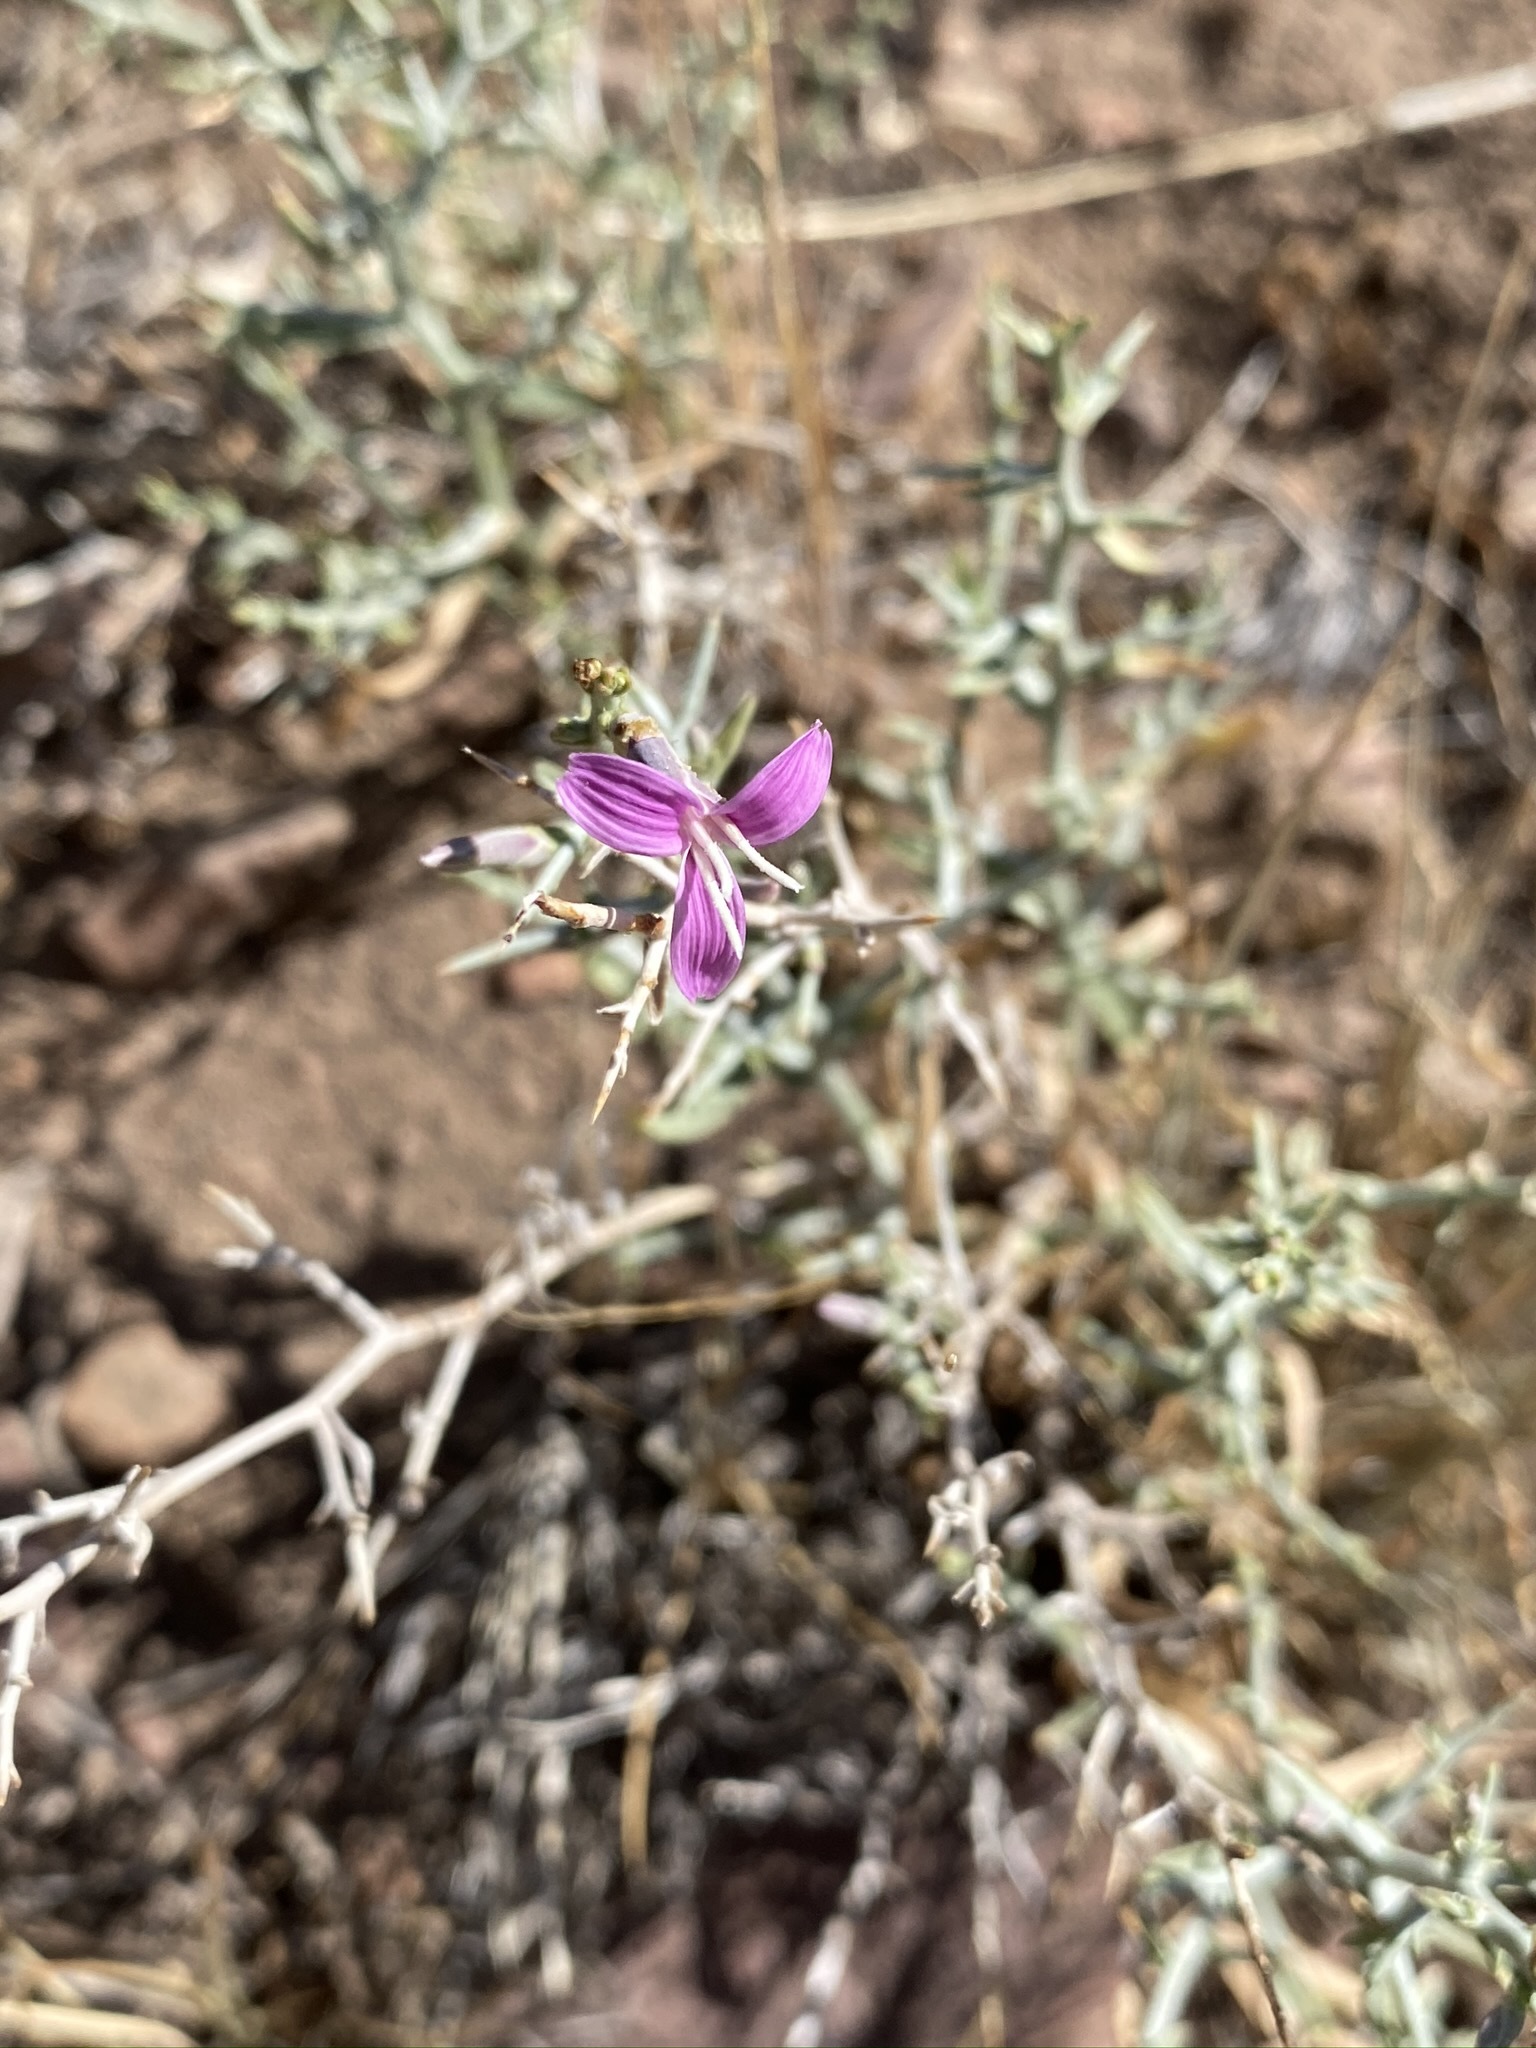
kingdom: Plantae
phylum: Tracheophyta
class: Magnoliopsida
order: Asterales
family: Asteraceae
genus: Pleiacanthus
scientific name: Pleiacanthus spinosus
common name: Thorny skeleton-weed
